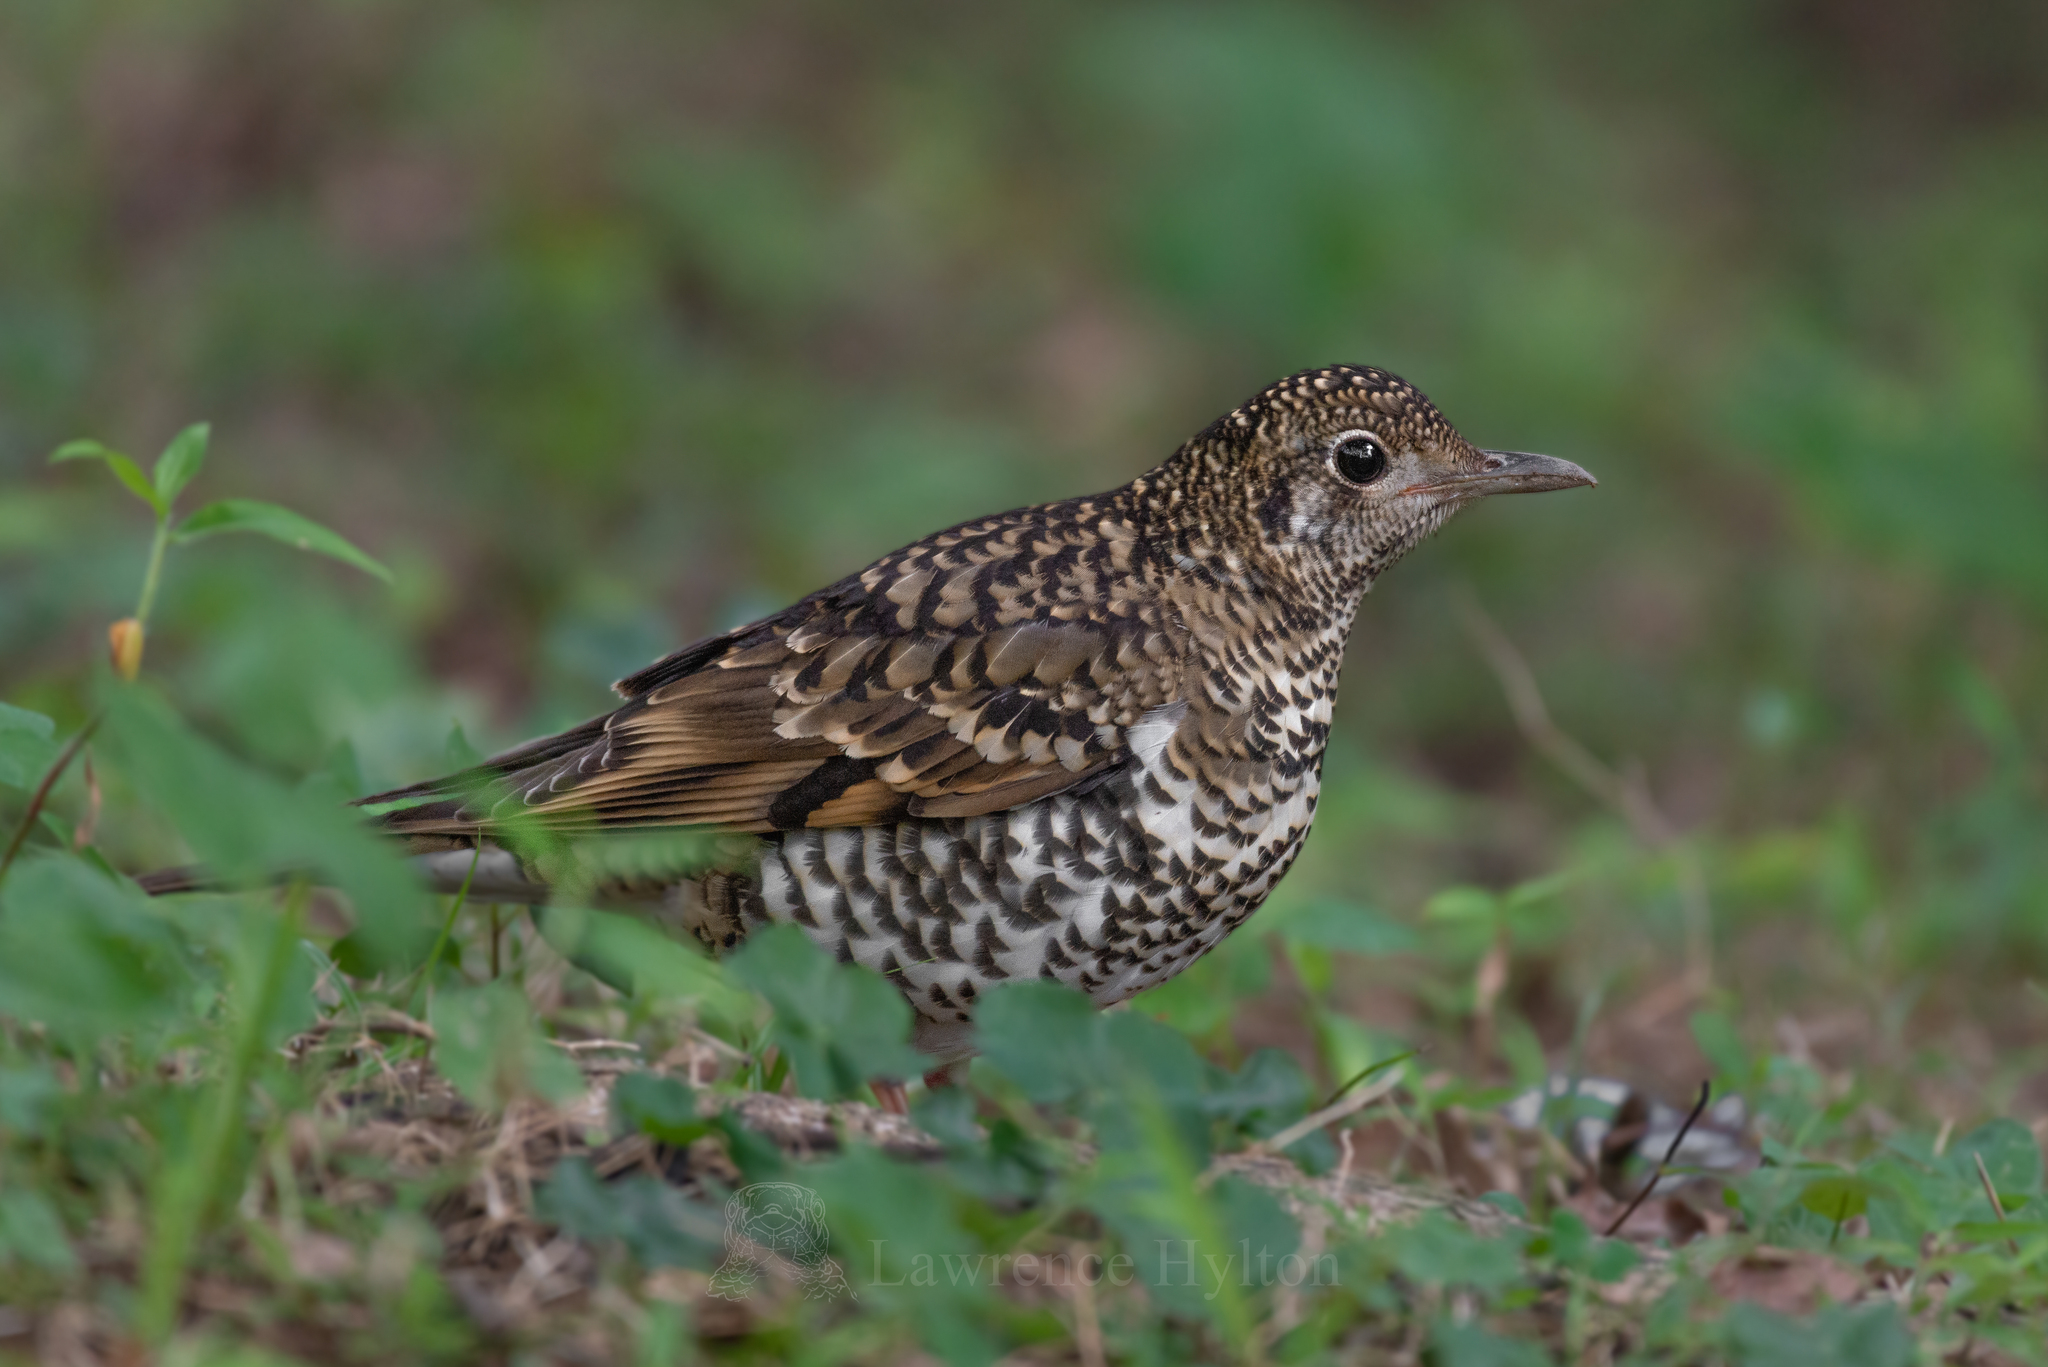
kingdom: Animalia
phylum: Chordata
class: Aves
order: Passeriformes
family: Turdidae
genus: Zoothera
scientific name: Zoothera aurea
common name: White's thrush
